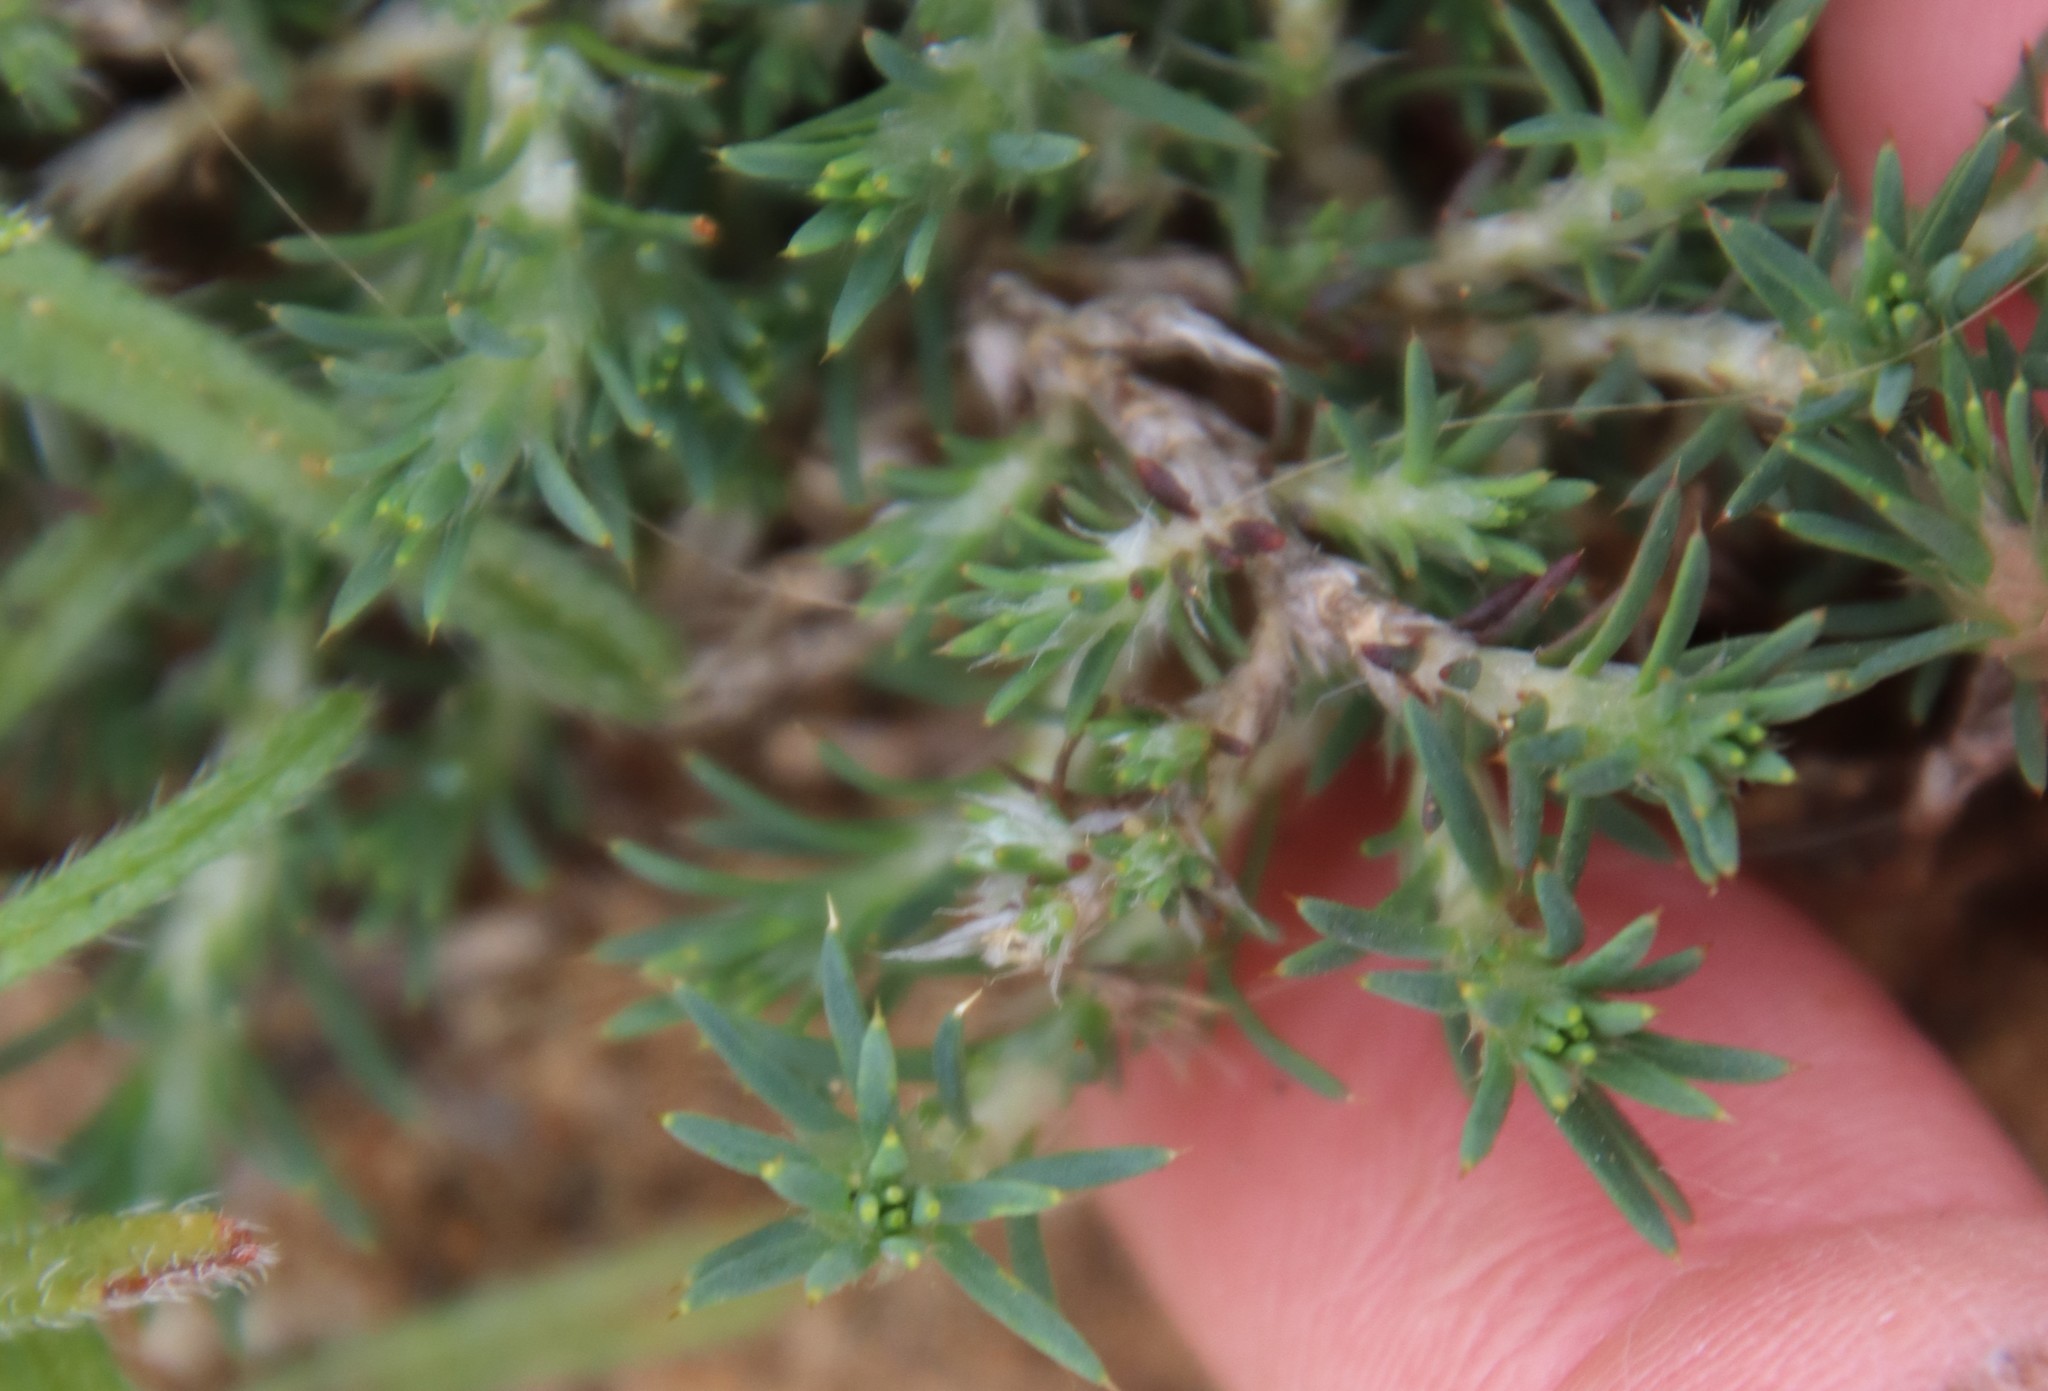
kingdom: Plantae
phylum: Tracheophyta
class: Magnoliopsida
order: Caryophyllales
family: Caryophyllaceae
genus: Cardionema
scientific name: Cardionema ramosissima
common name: Sandcarpet
